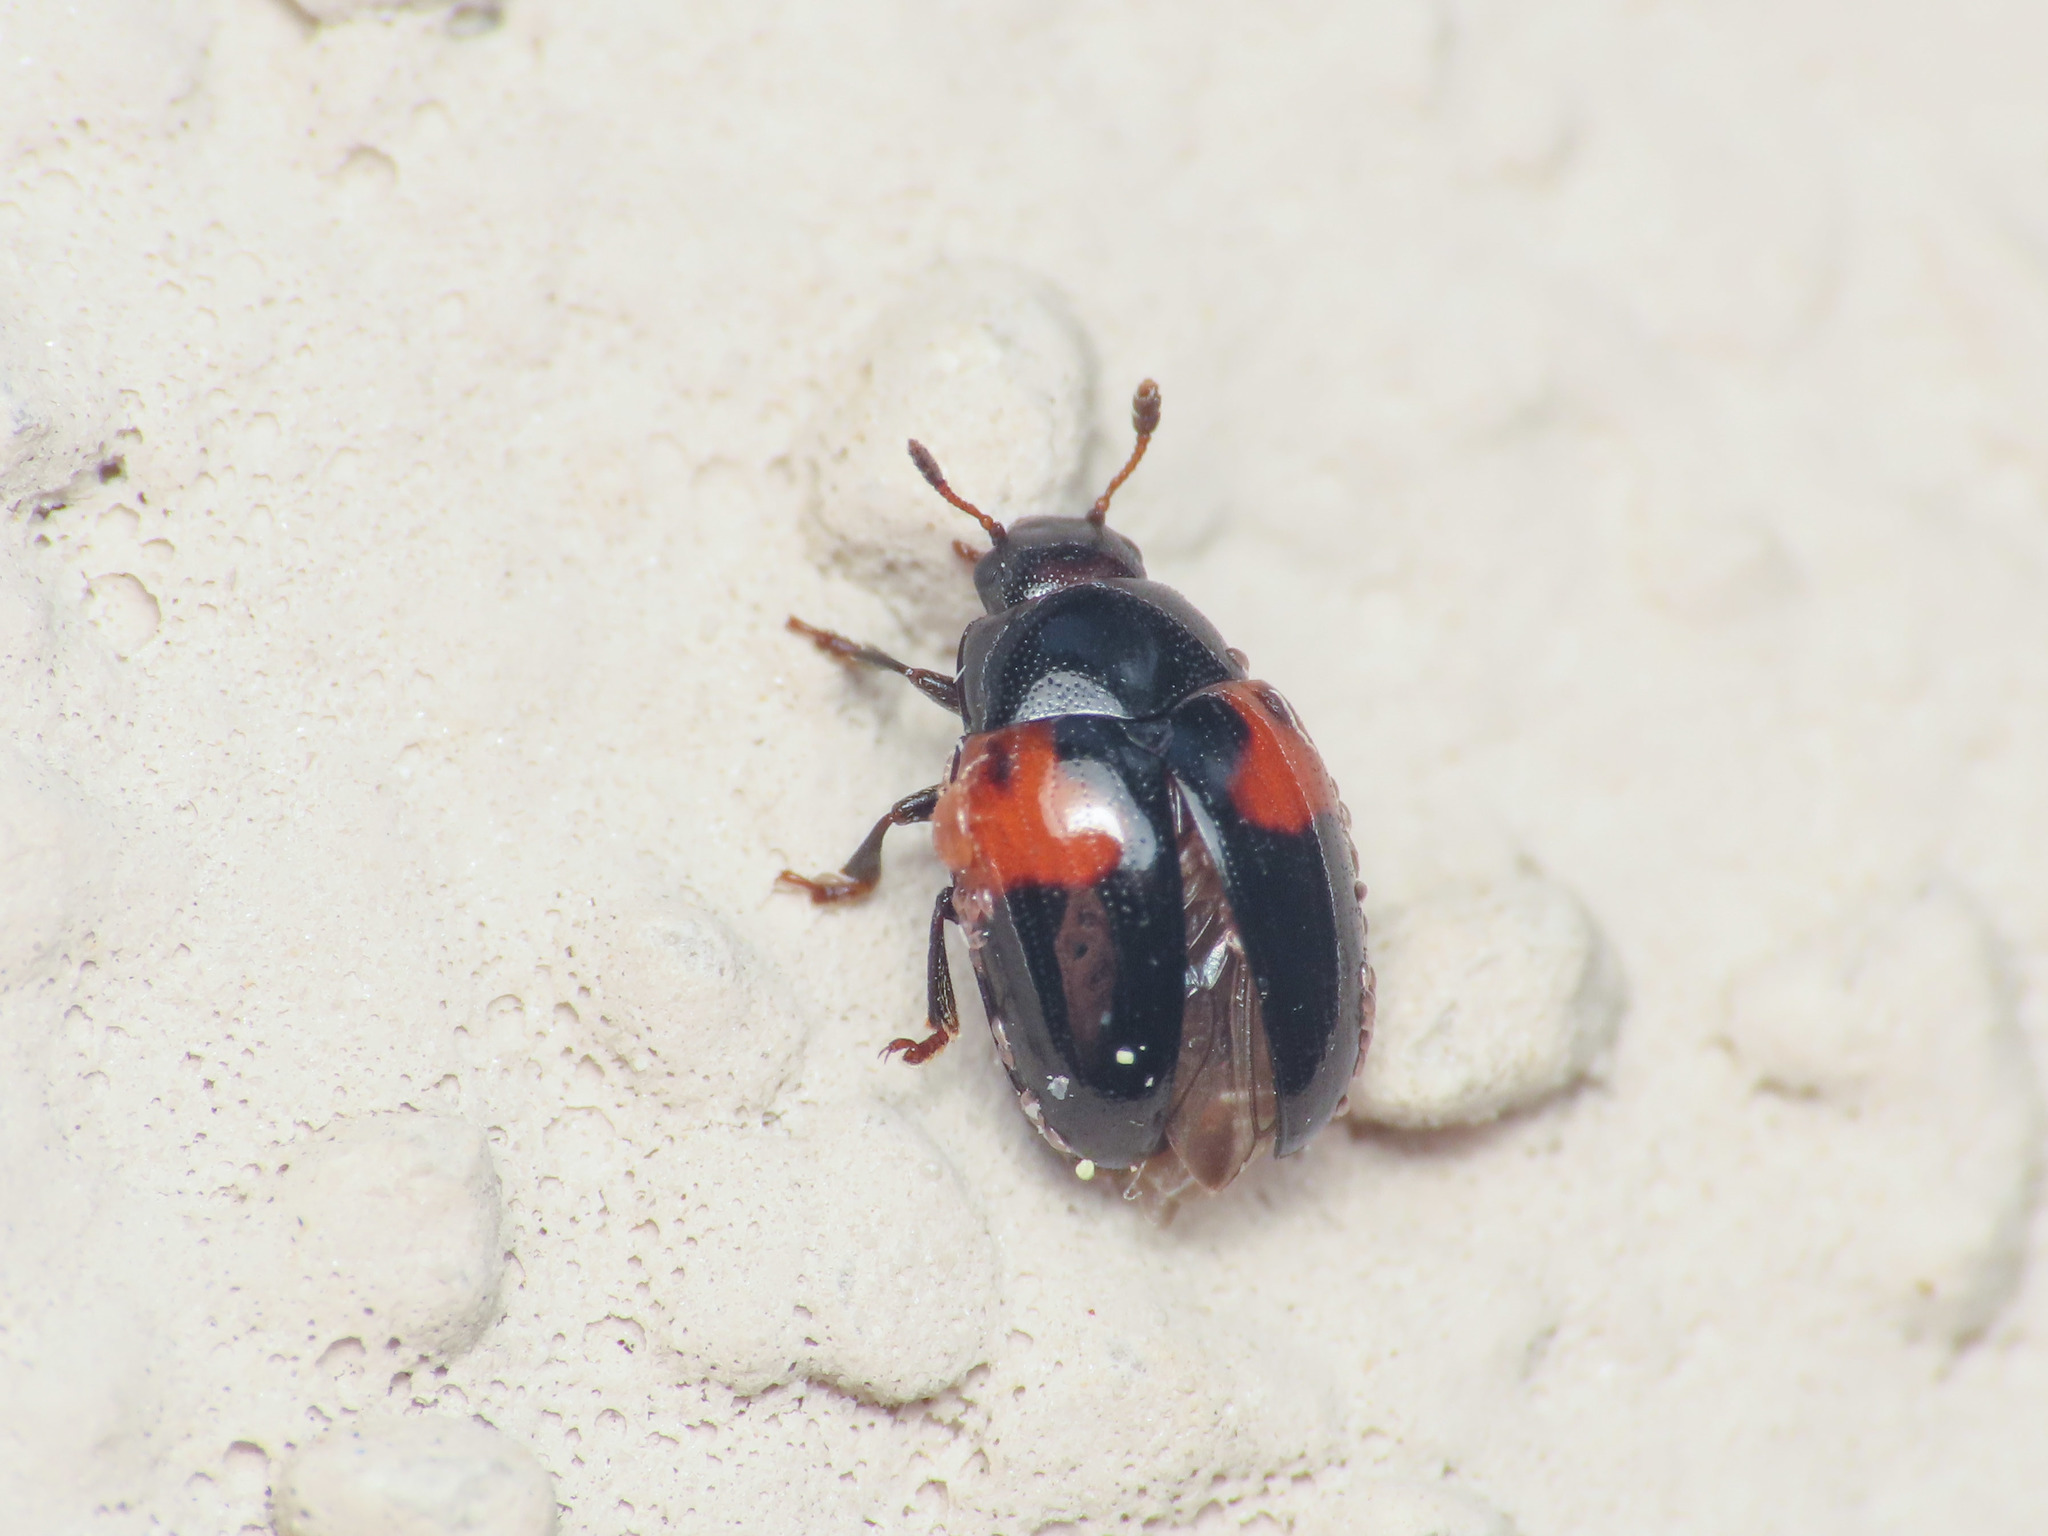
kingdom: Animalia
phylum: Arthropoda
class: Insecta
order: Coleoptera
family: Erotylidae
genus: Tritoma
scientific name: Tritoma bipustulata
